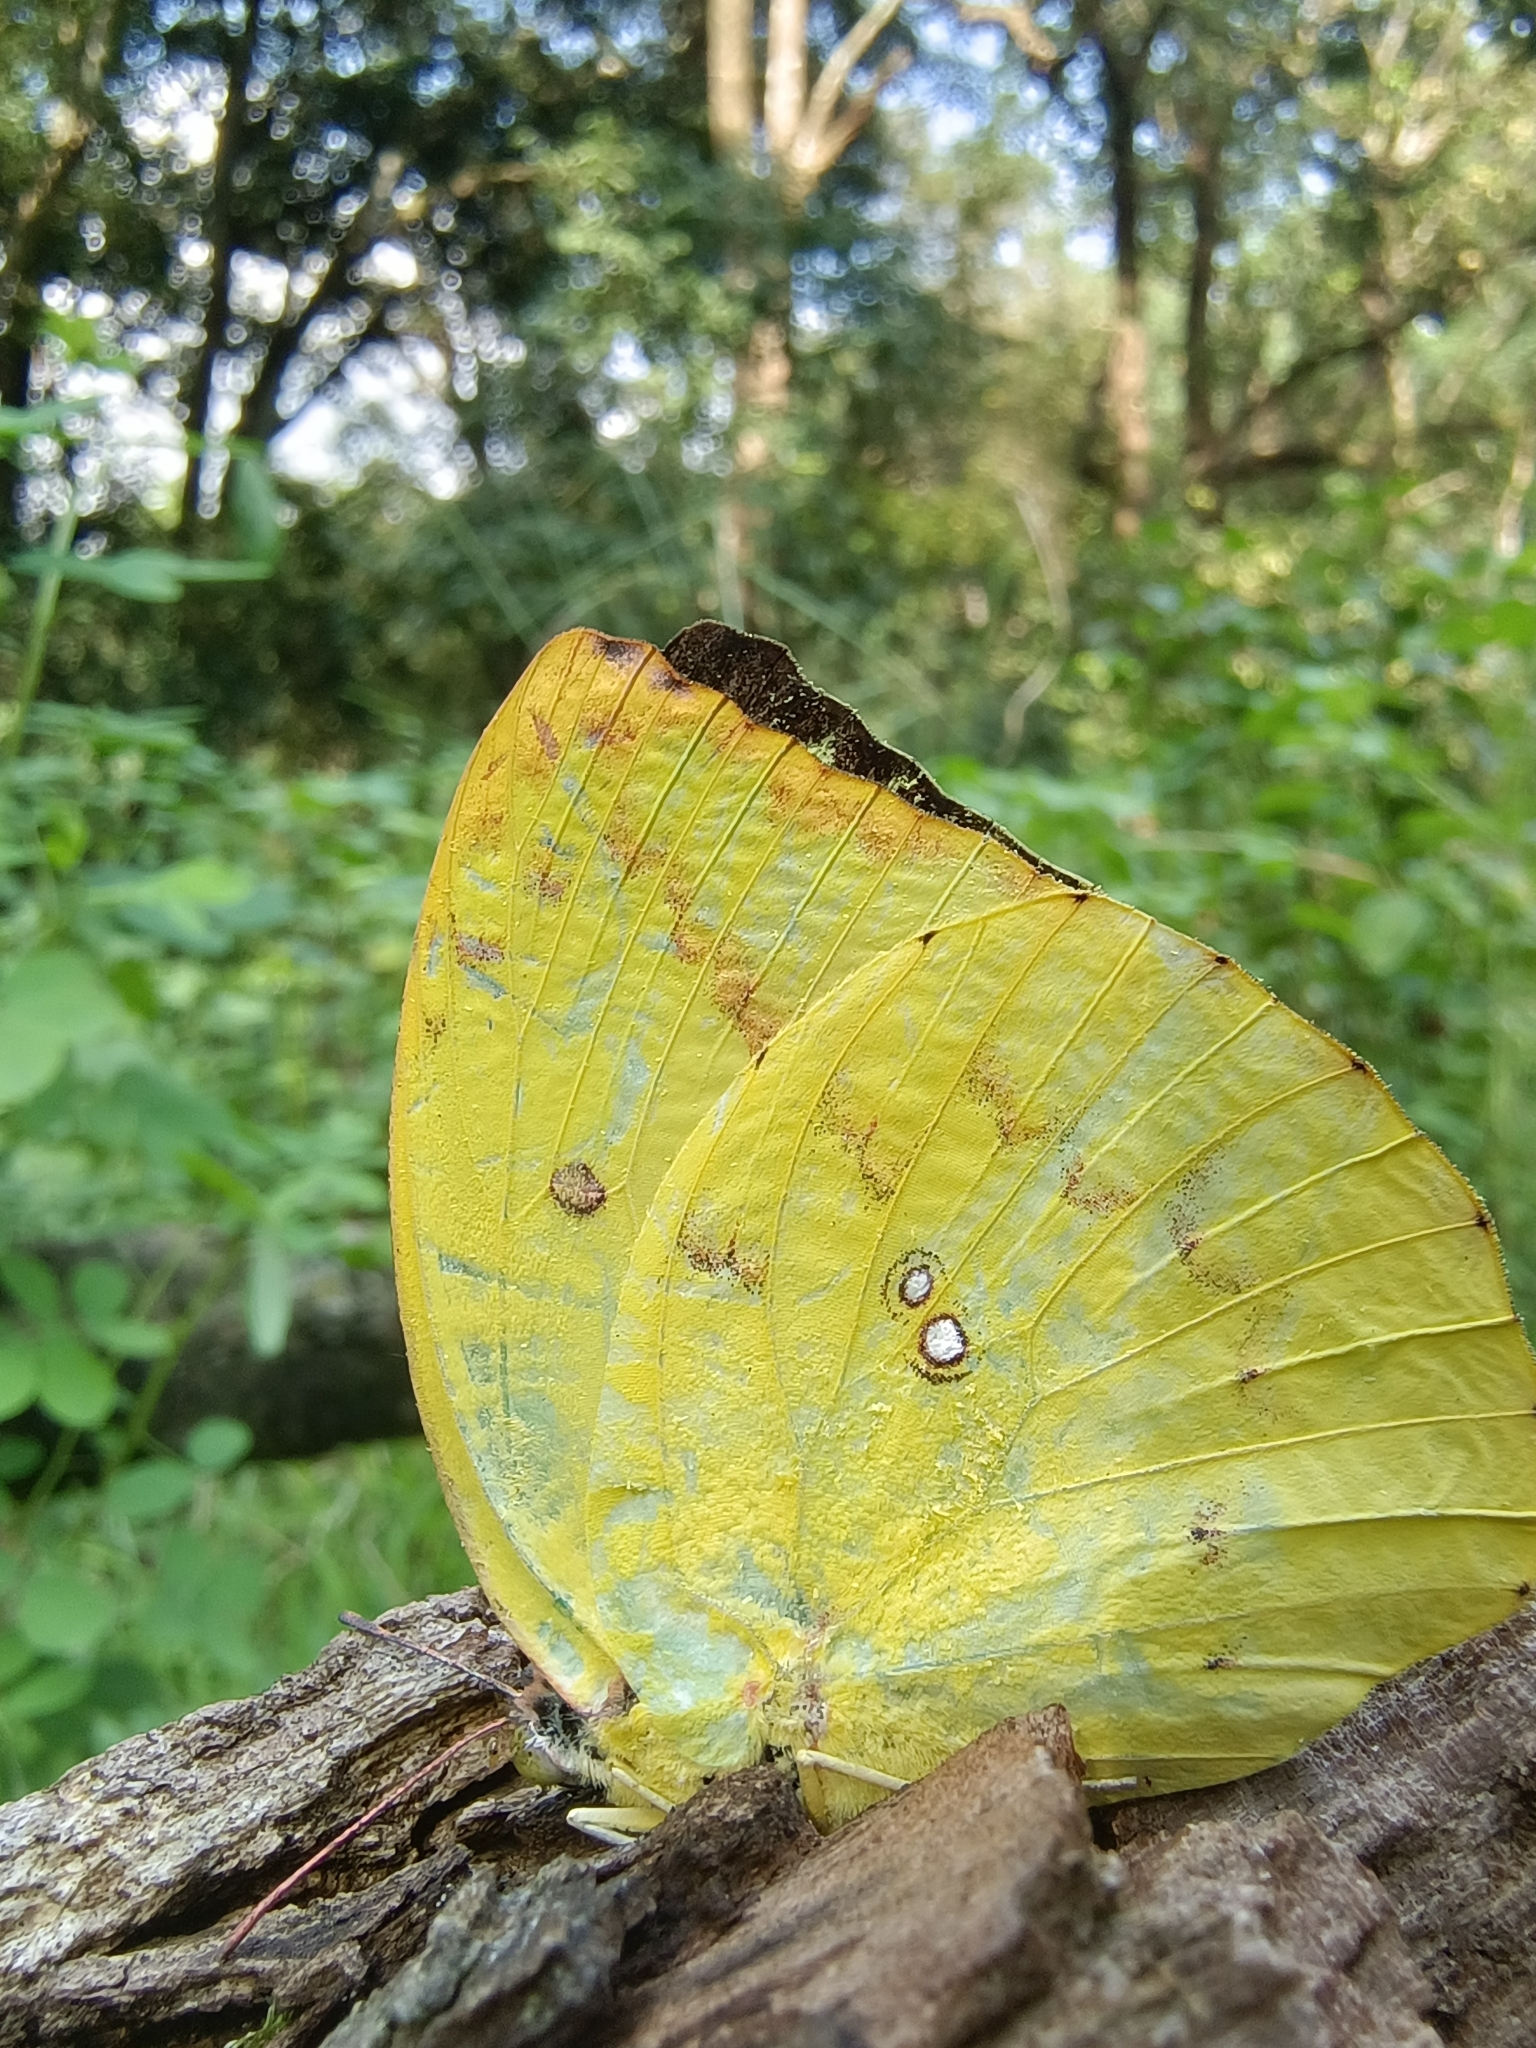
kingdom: Animalia
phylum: Arthropoda
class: Insecta
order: Lepidoptera
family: Pieridae
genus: Catopsilia
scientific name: Catopsilia pomona
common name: Common emigrant
